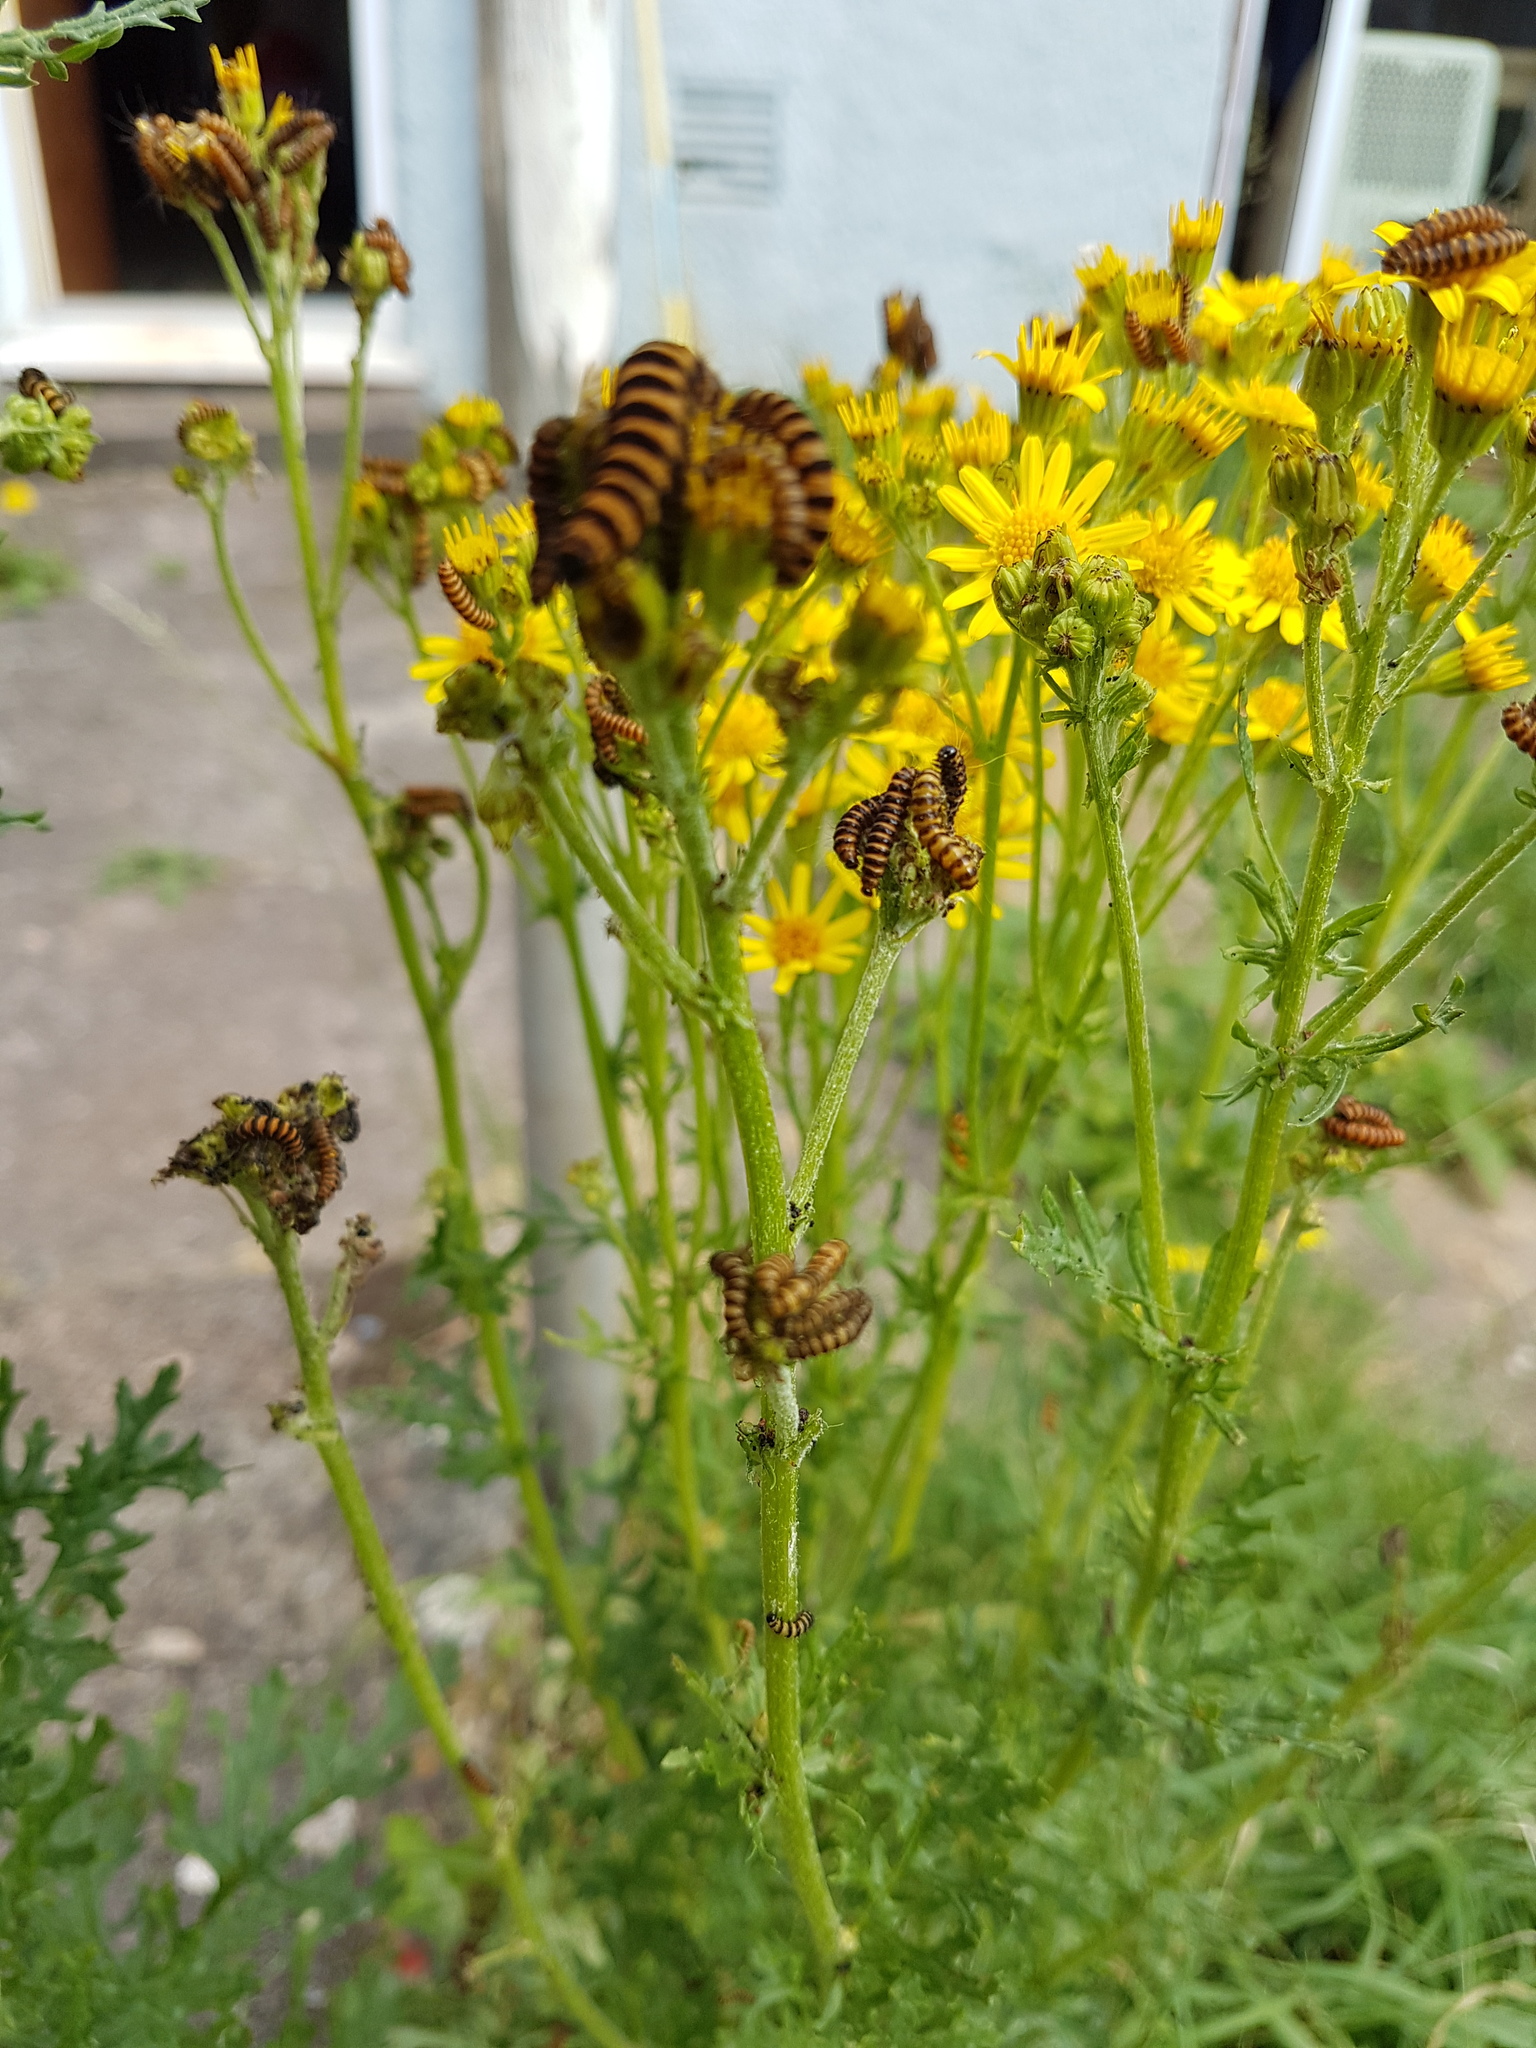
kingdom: Animalia
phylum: Arthropoda
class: Insecta
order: Lepidoptera
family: Erebidae
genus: Tyria
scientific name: Tyria jacobaeae
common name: Cinnabar
